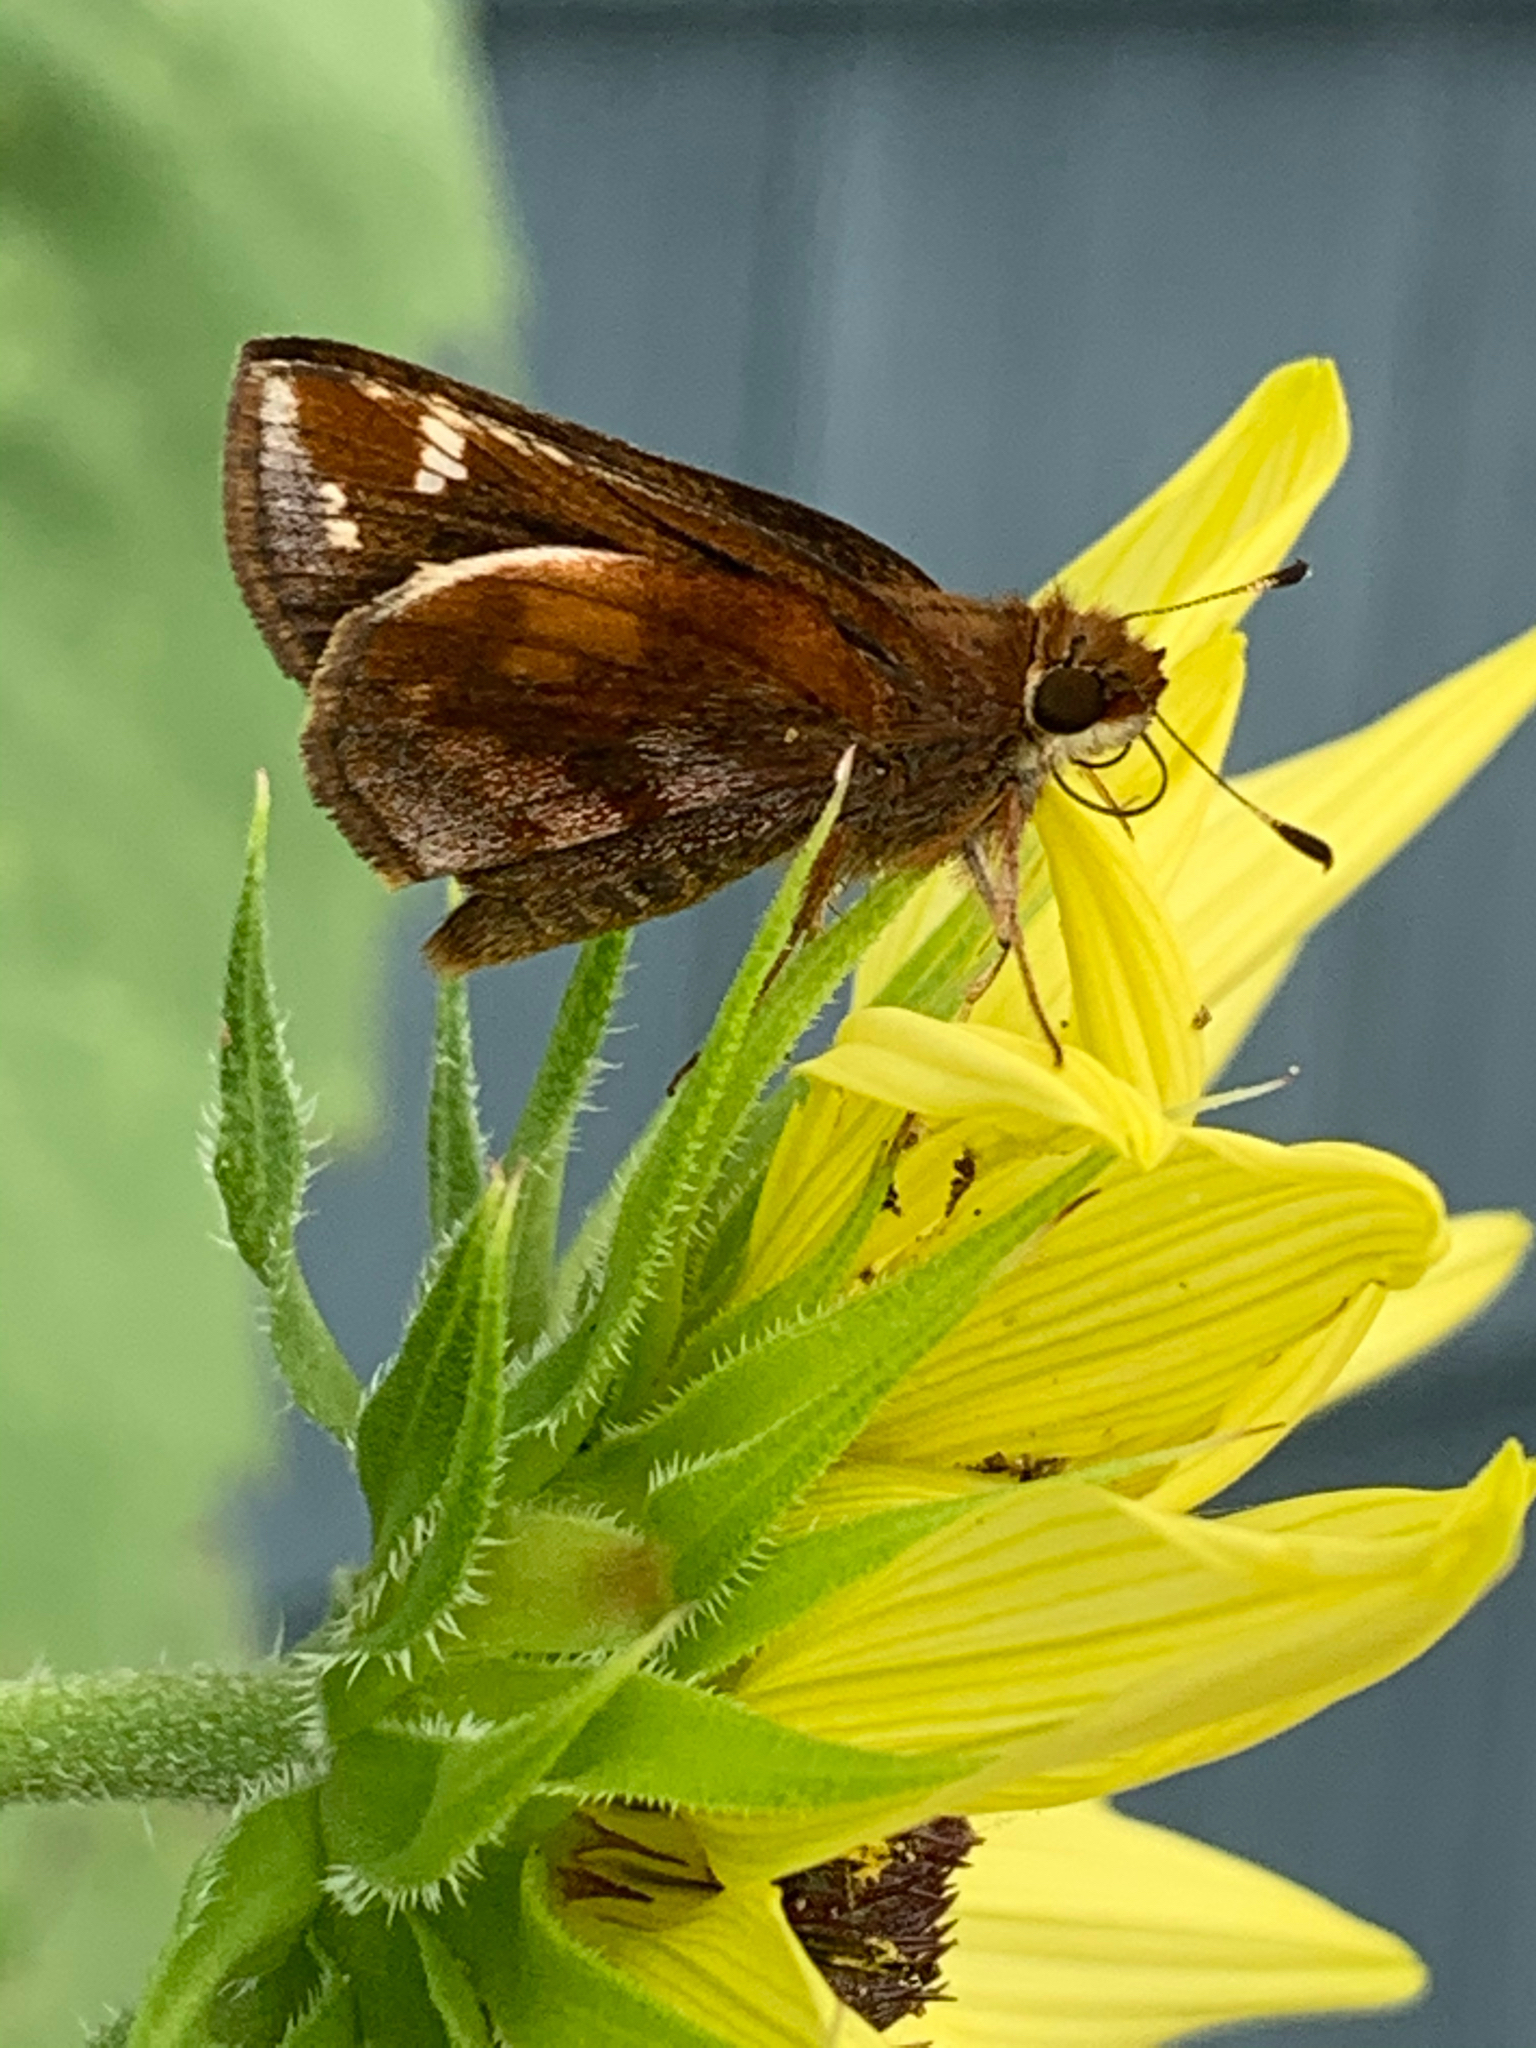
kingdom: Animalia
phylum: Arthropoda
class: Insecta
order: Lepidoptera
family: Hesperiidae
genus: Lon
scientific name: Lon zabulon
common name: Zabulon skipper
